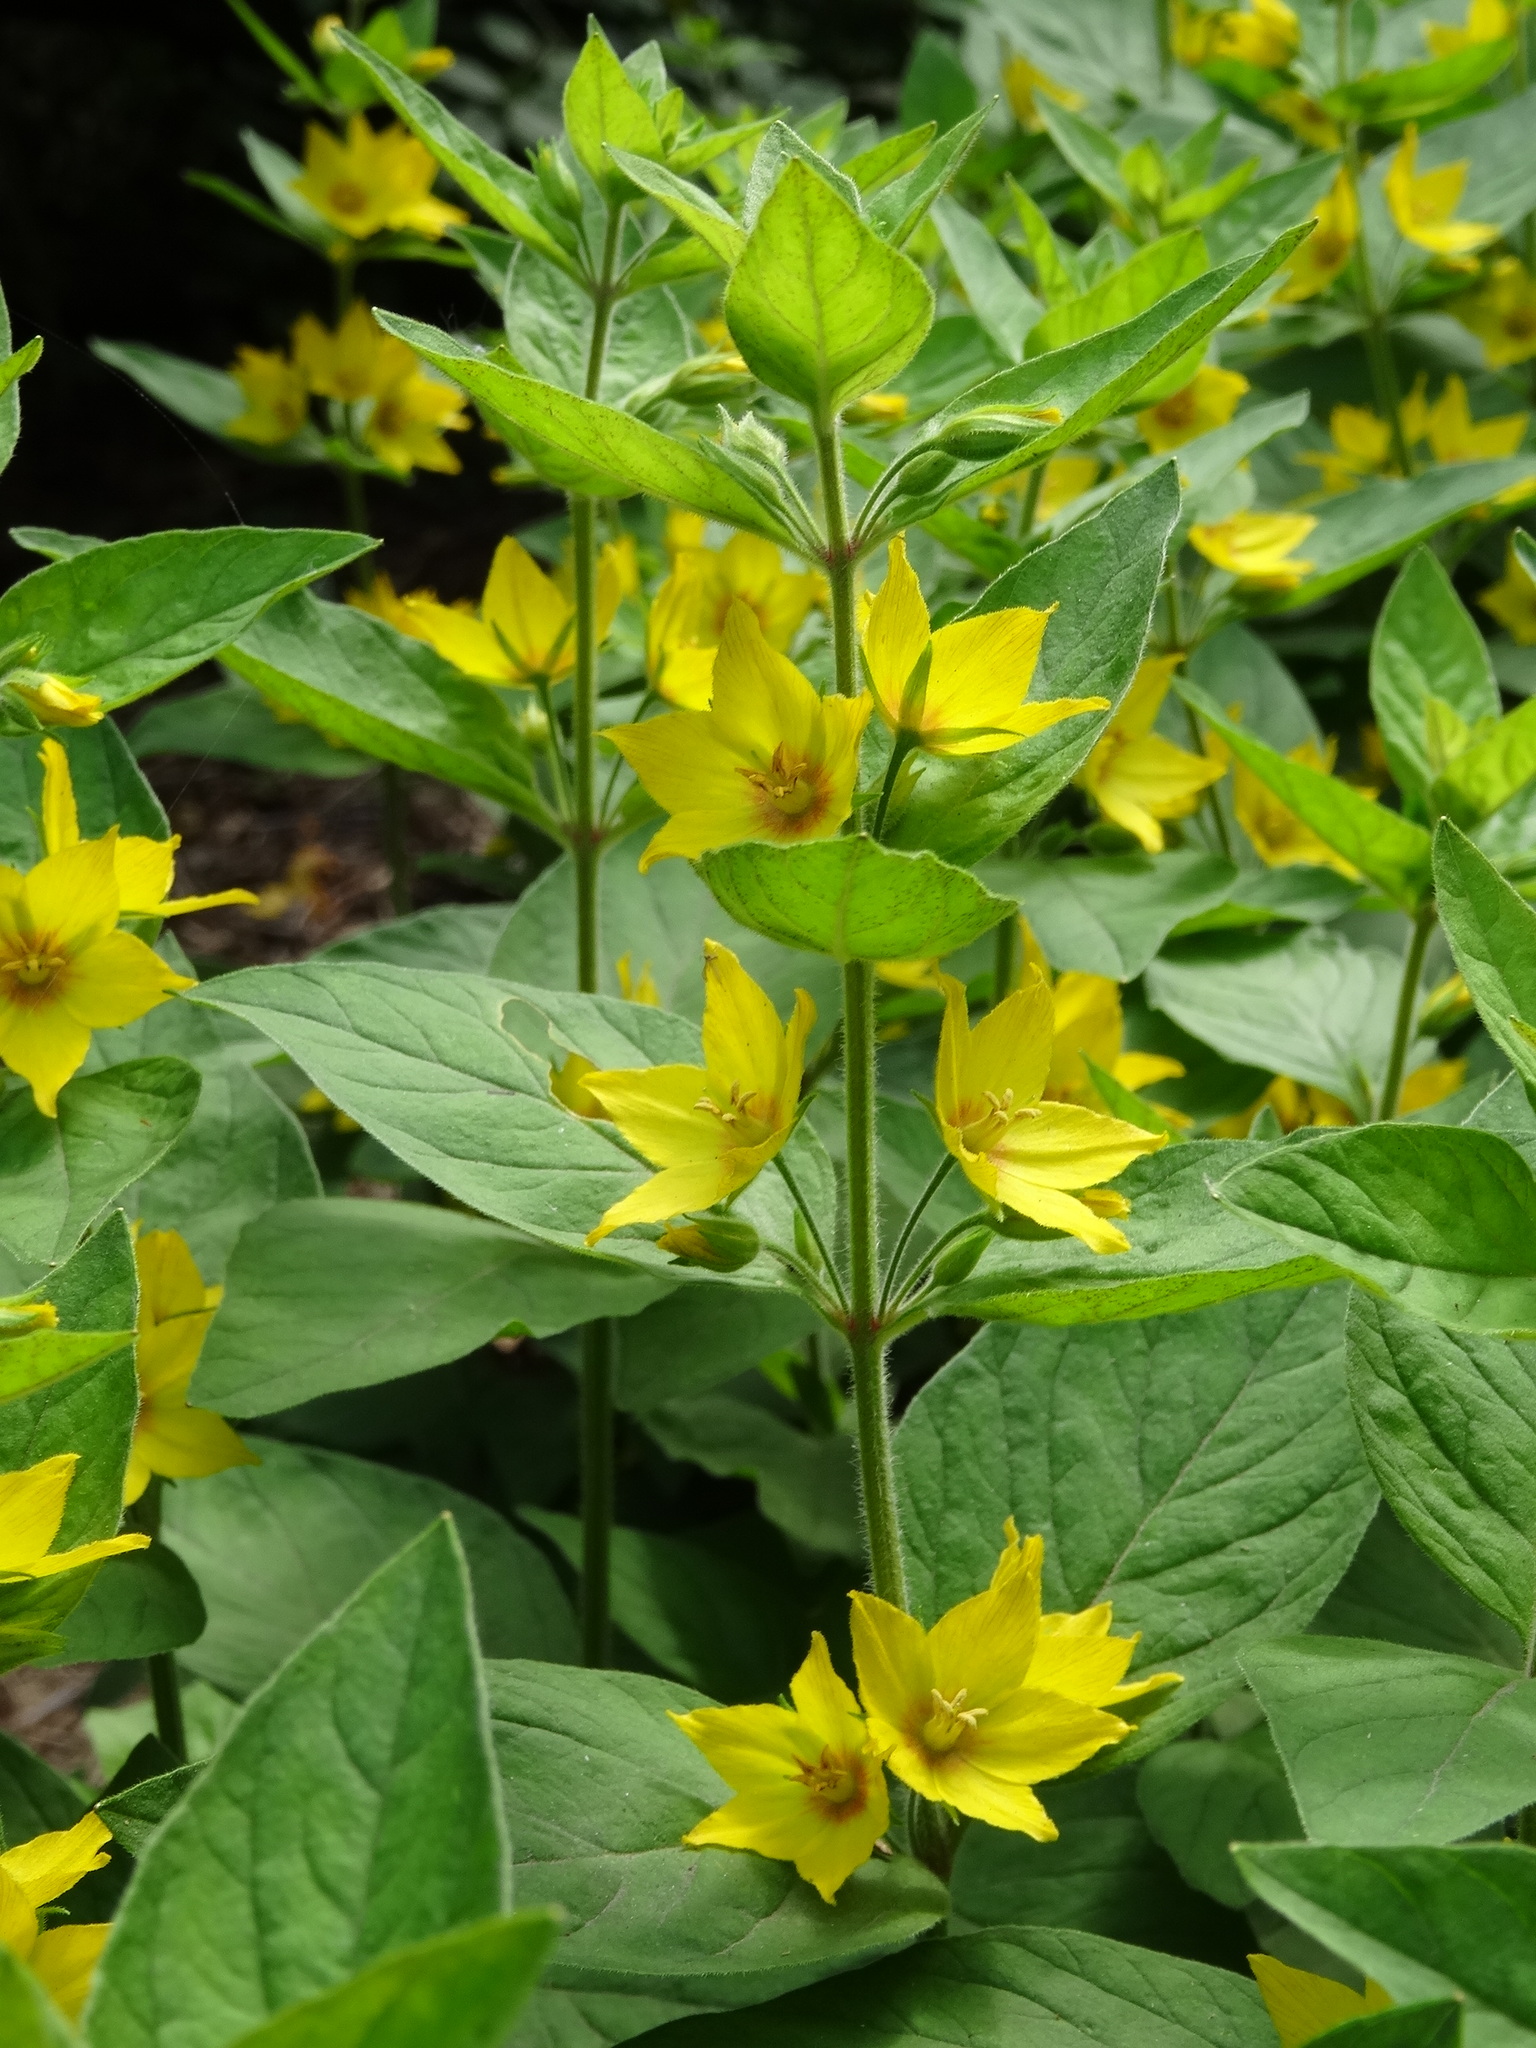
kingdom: Plantae
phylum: Tracheophyta
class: Magnoliopsida
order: Ericales
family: Primulaceae
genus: Lysimachia
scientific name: Lysimachia punctata
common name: Dotted loosestrife
